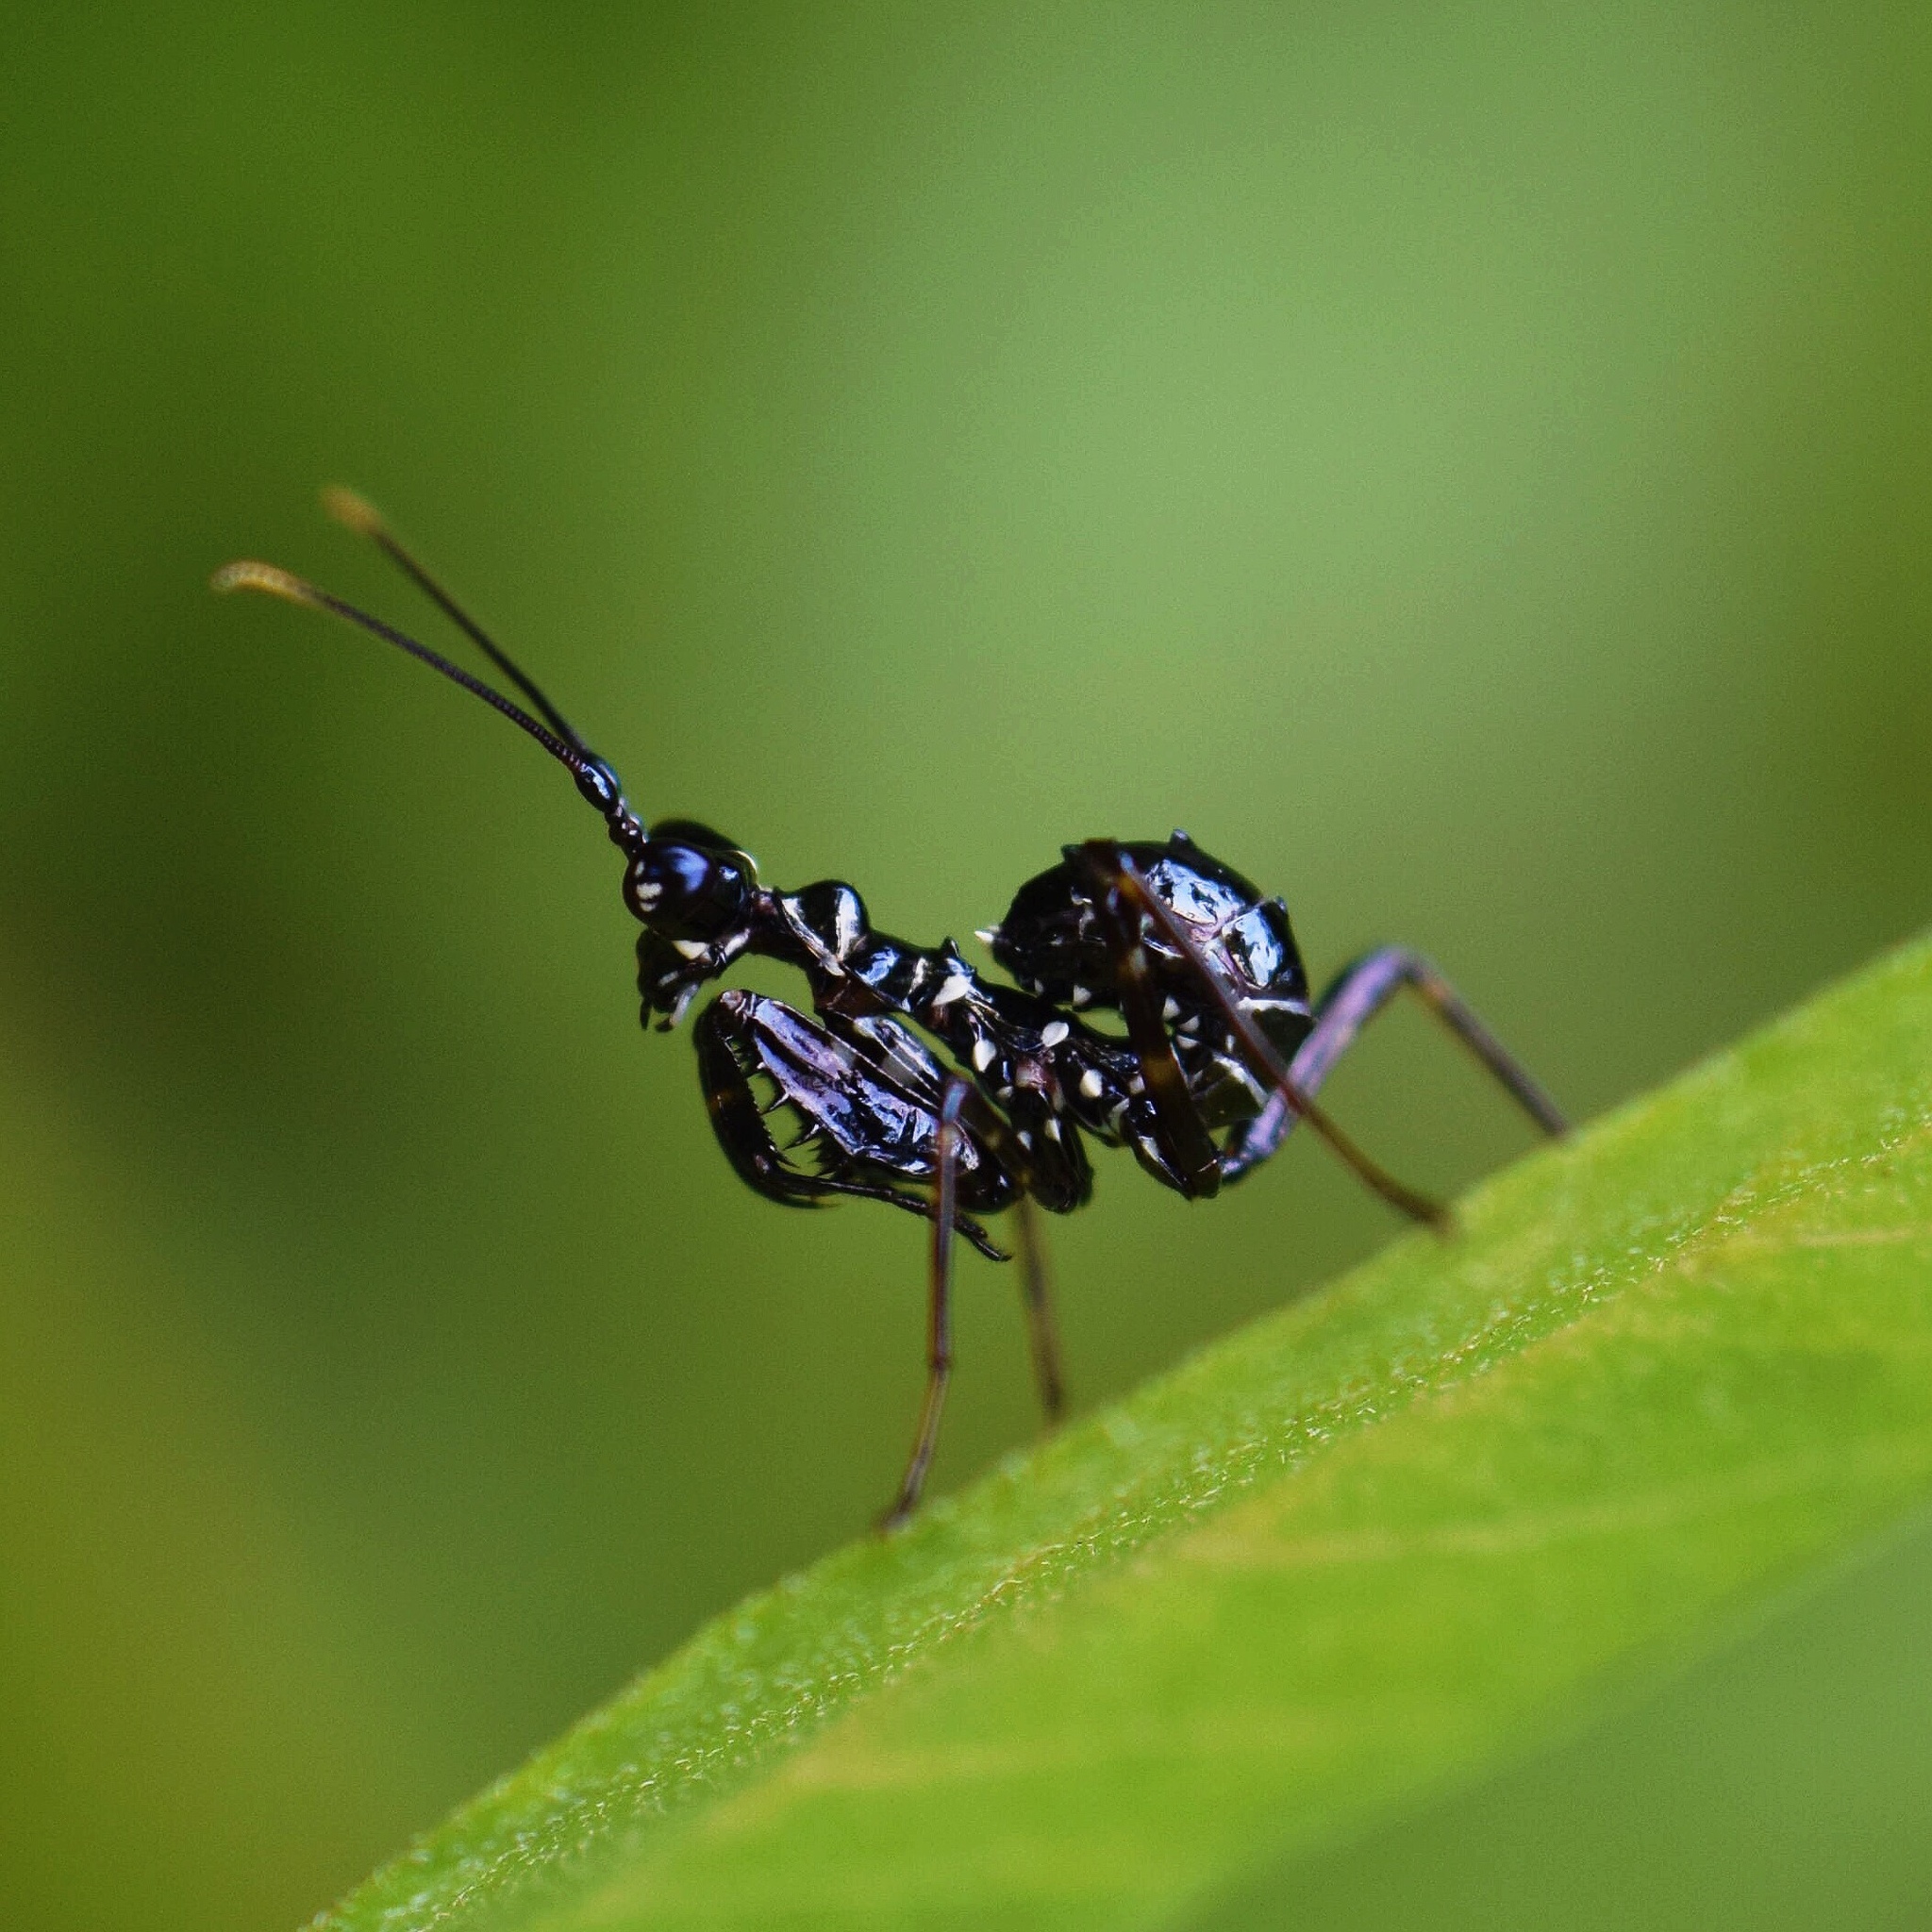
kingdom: Animalia
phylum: Arthropoda
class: Insecta
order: Mantodea
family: Hymenopodidae
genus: Pseudocreobotra
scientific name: Pseudocreobotra wahlbergi
